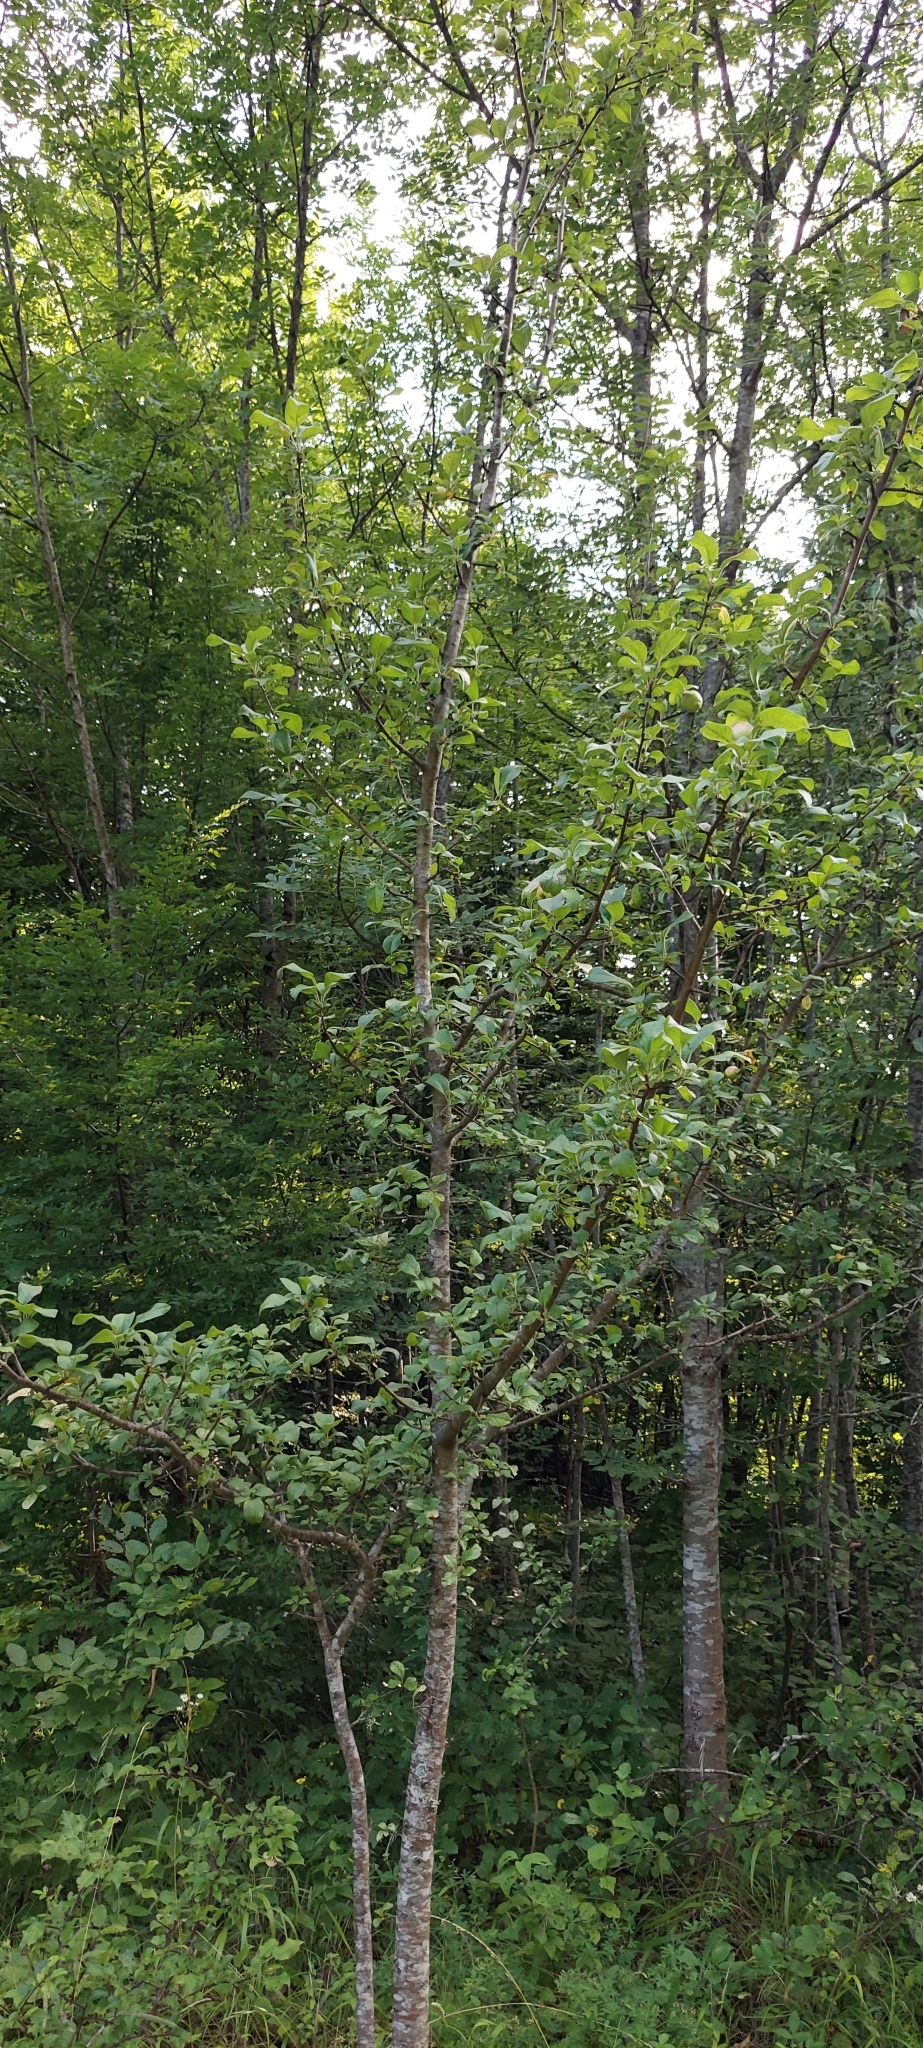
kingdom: Plantae
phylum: Tracheophyta
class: Magnoliopsida
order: Rosales
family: Rosaceae
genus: Malus
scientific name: Malus domestica
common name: Apple
